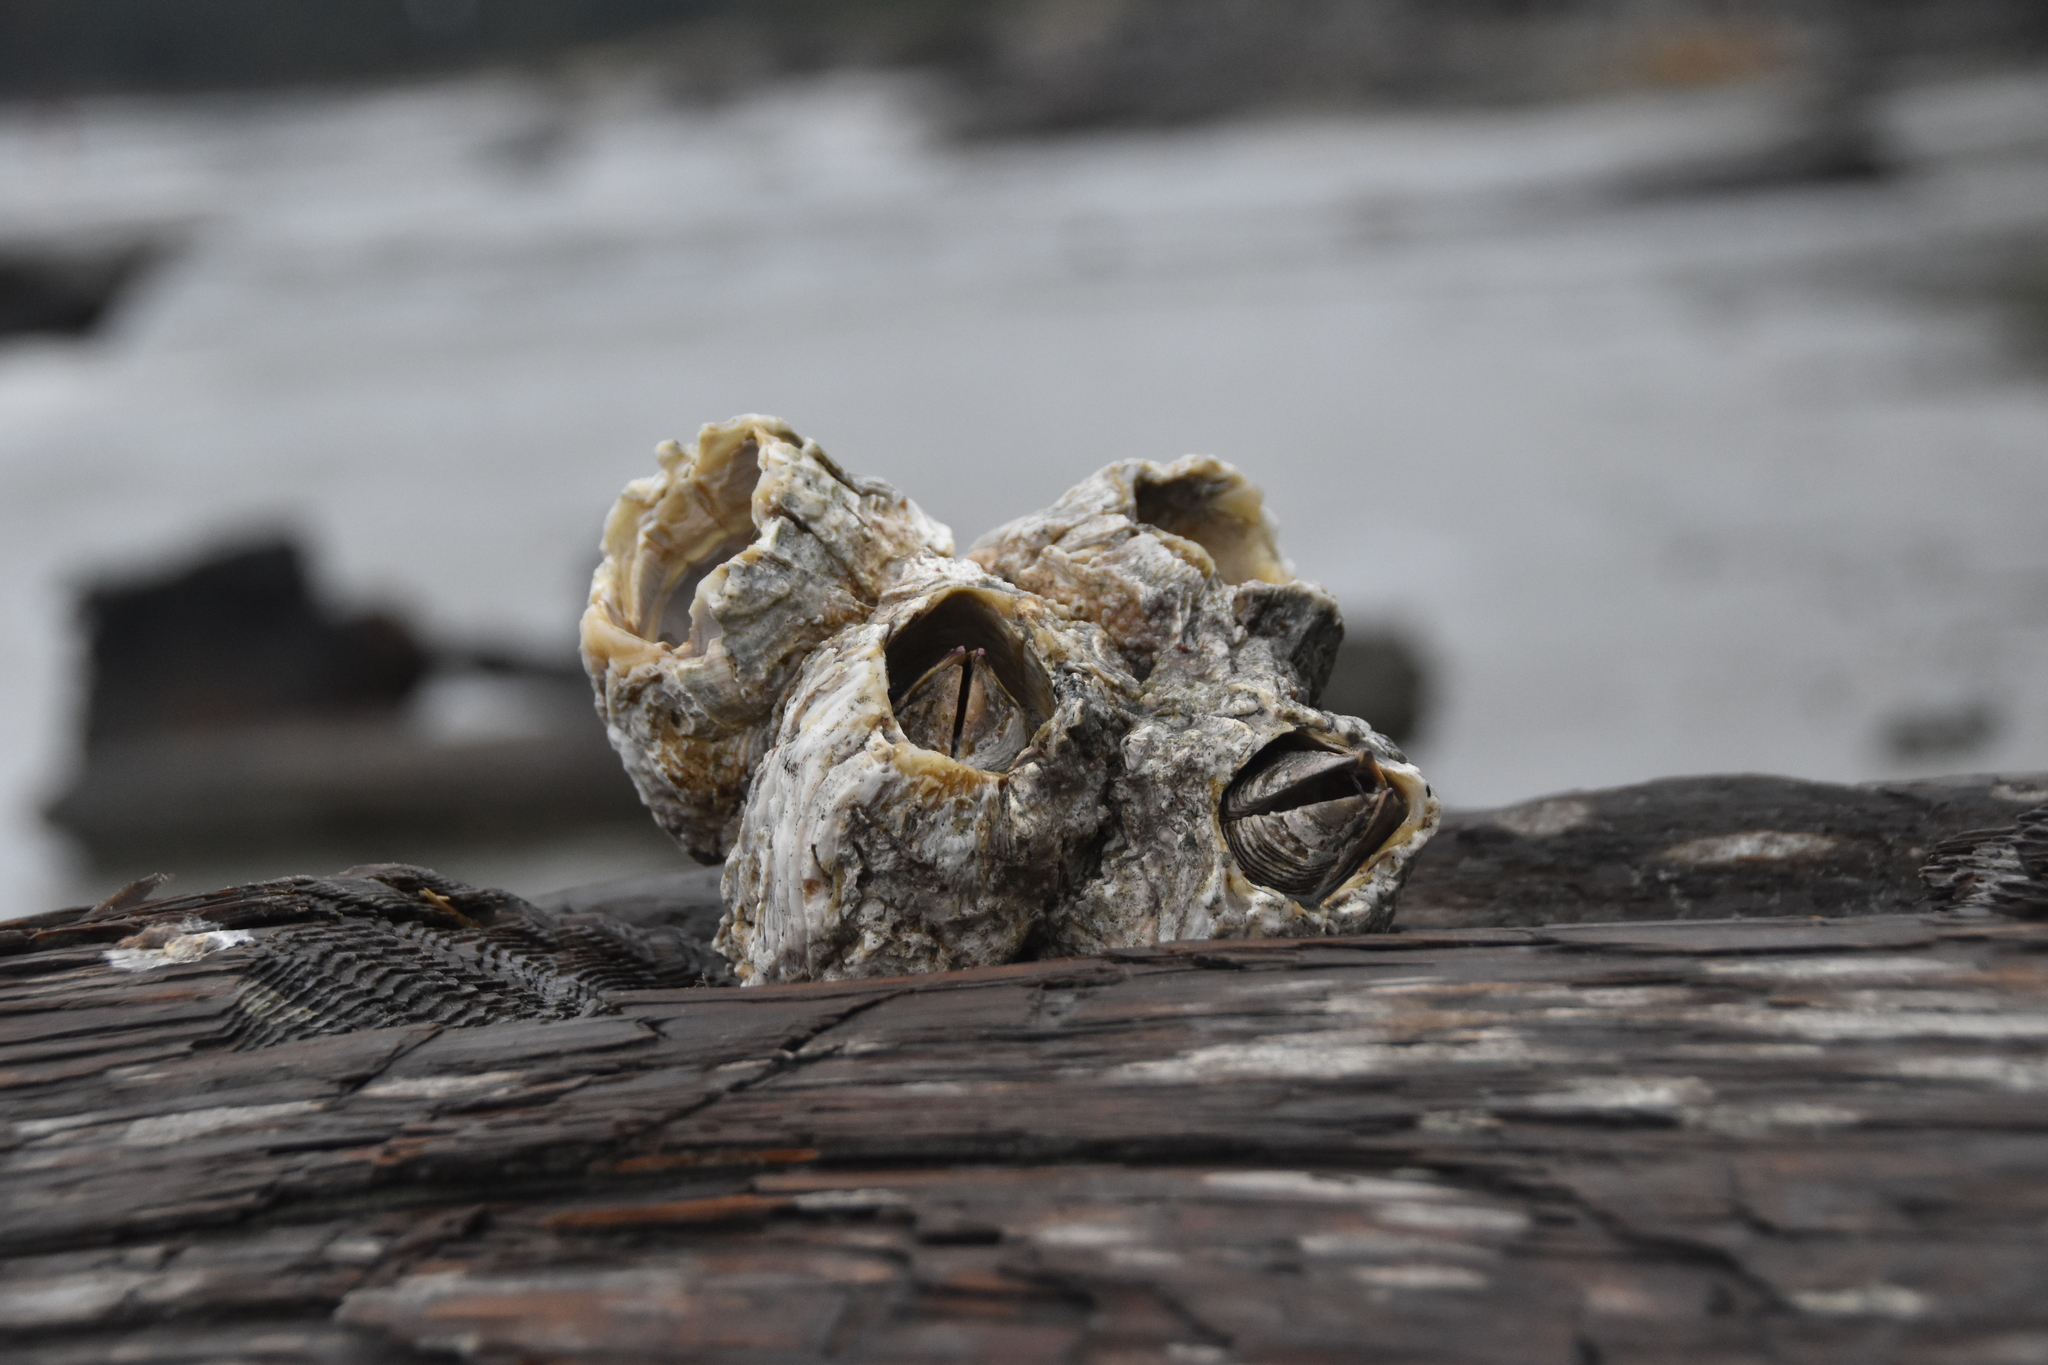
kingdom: Animalia
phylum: Arthropoda
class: Maxillopoda
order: Sessilia
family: Balanidae
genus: Balanus
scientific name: Balanus nubilus
